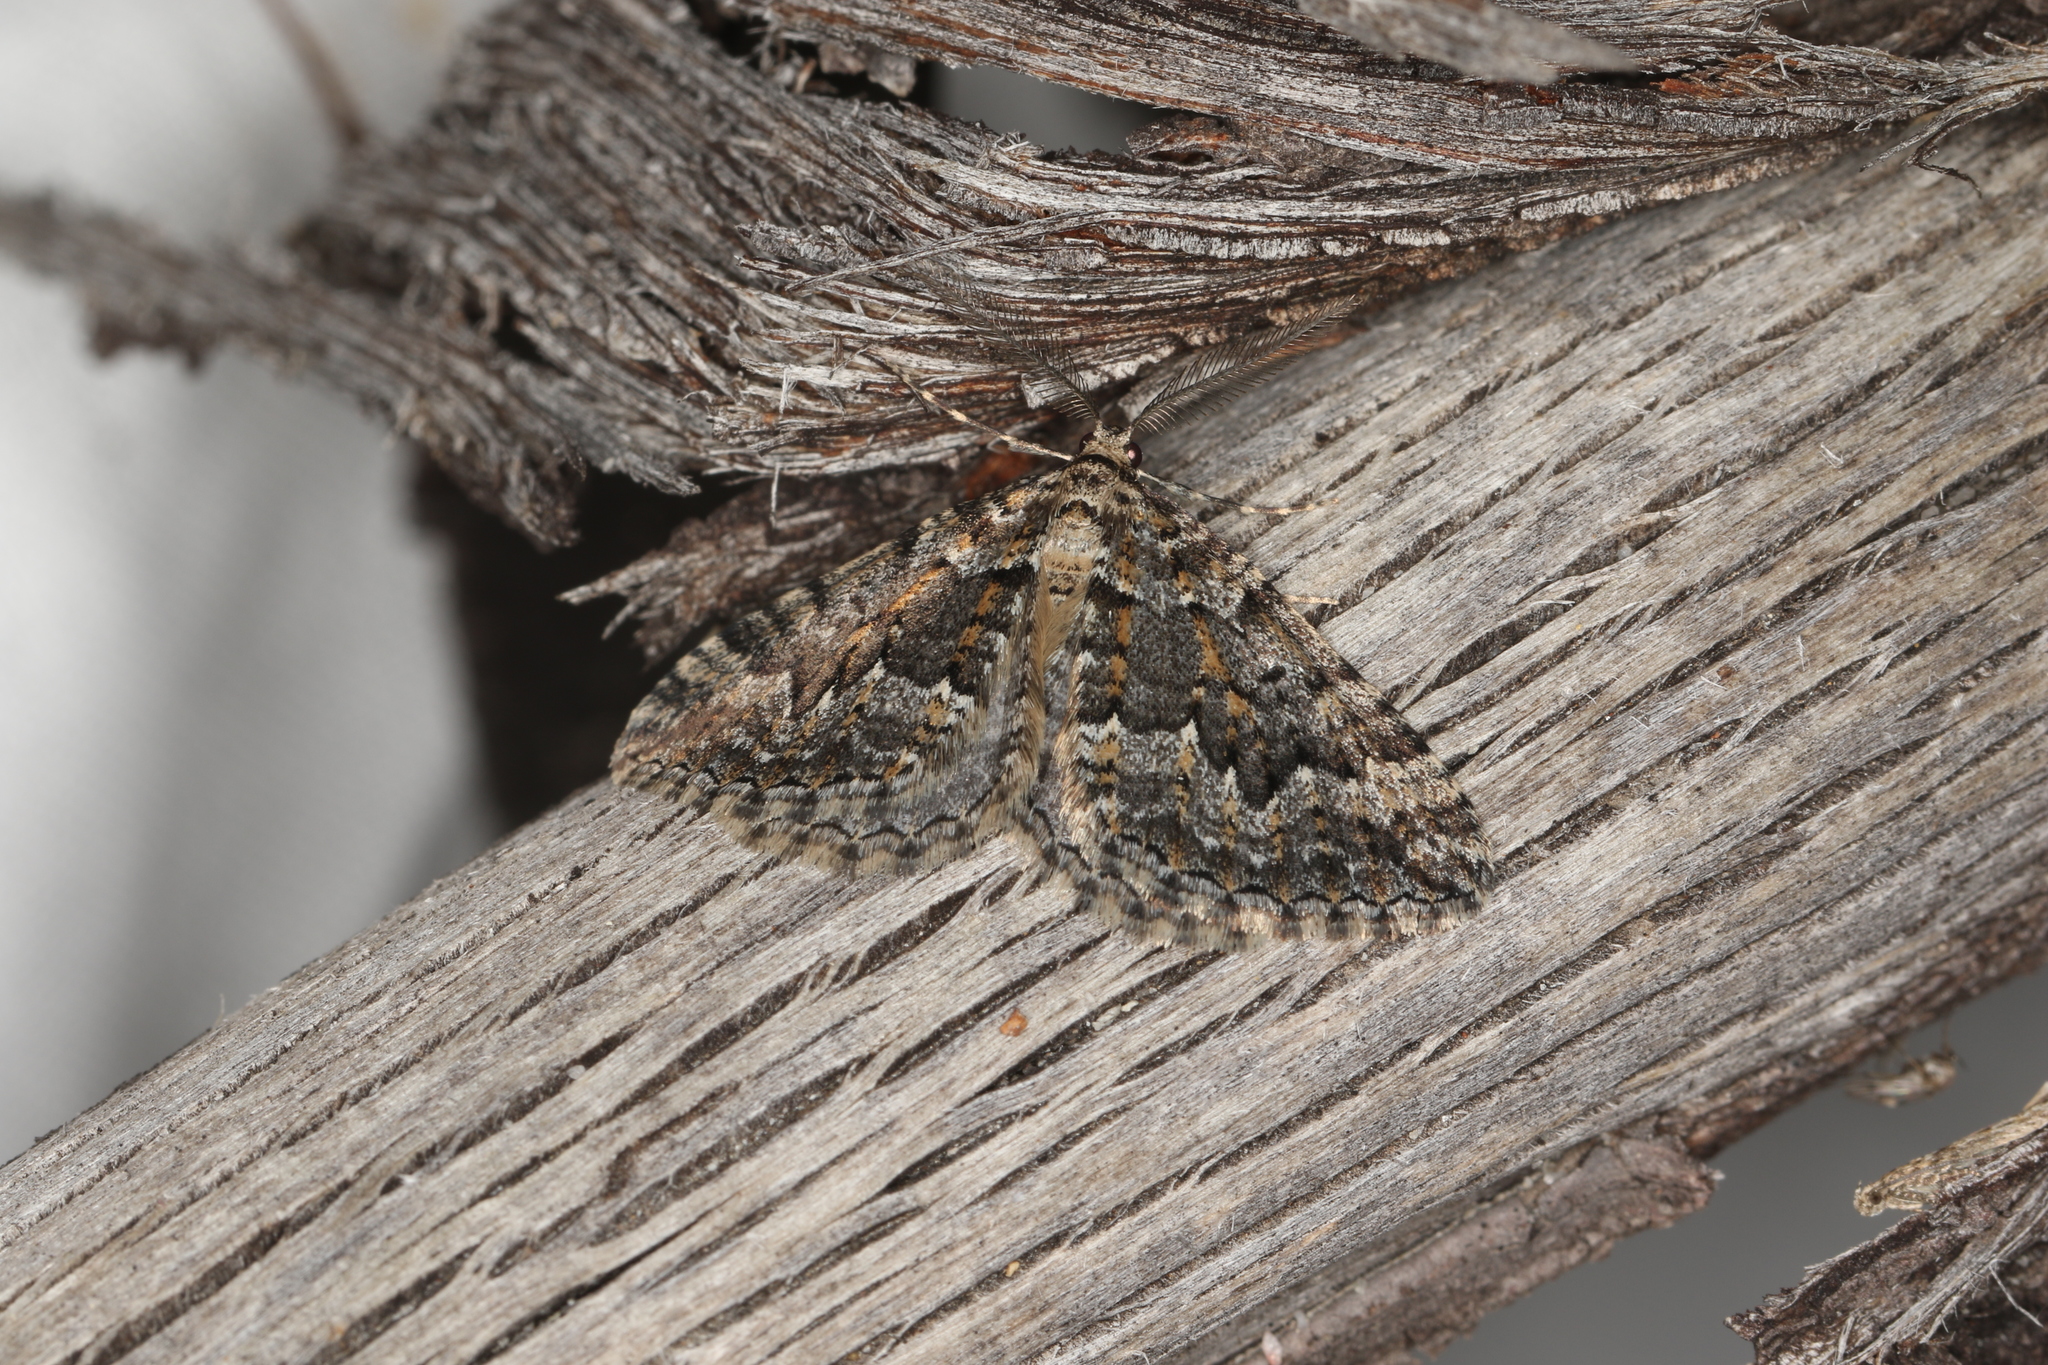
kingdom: Animalia
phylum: Arthropoda
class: Insecta
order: Lepidoptera
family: Geometridae
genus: Xanthorhoe
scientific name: Xanthorhoe emmelopis
